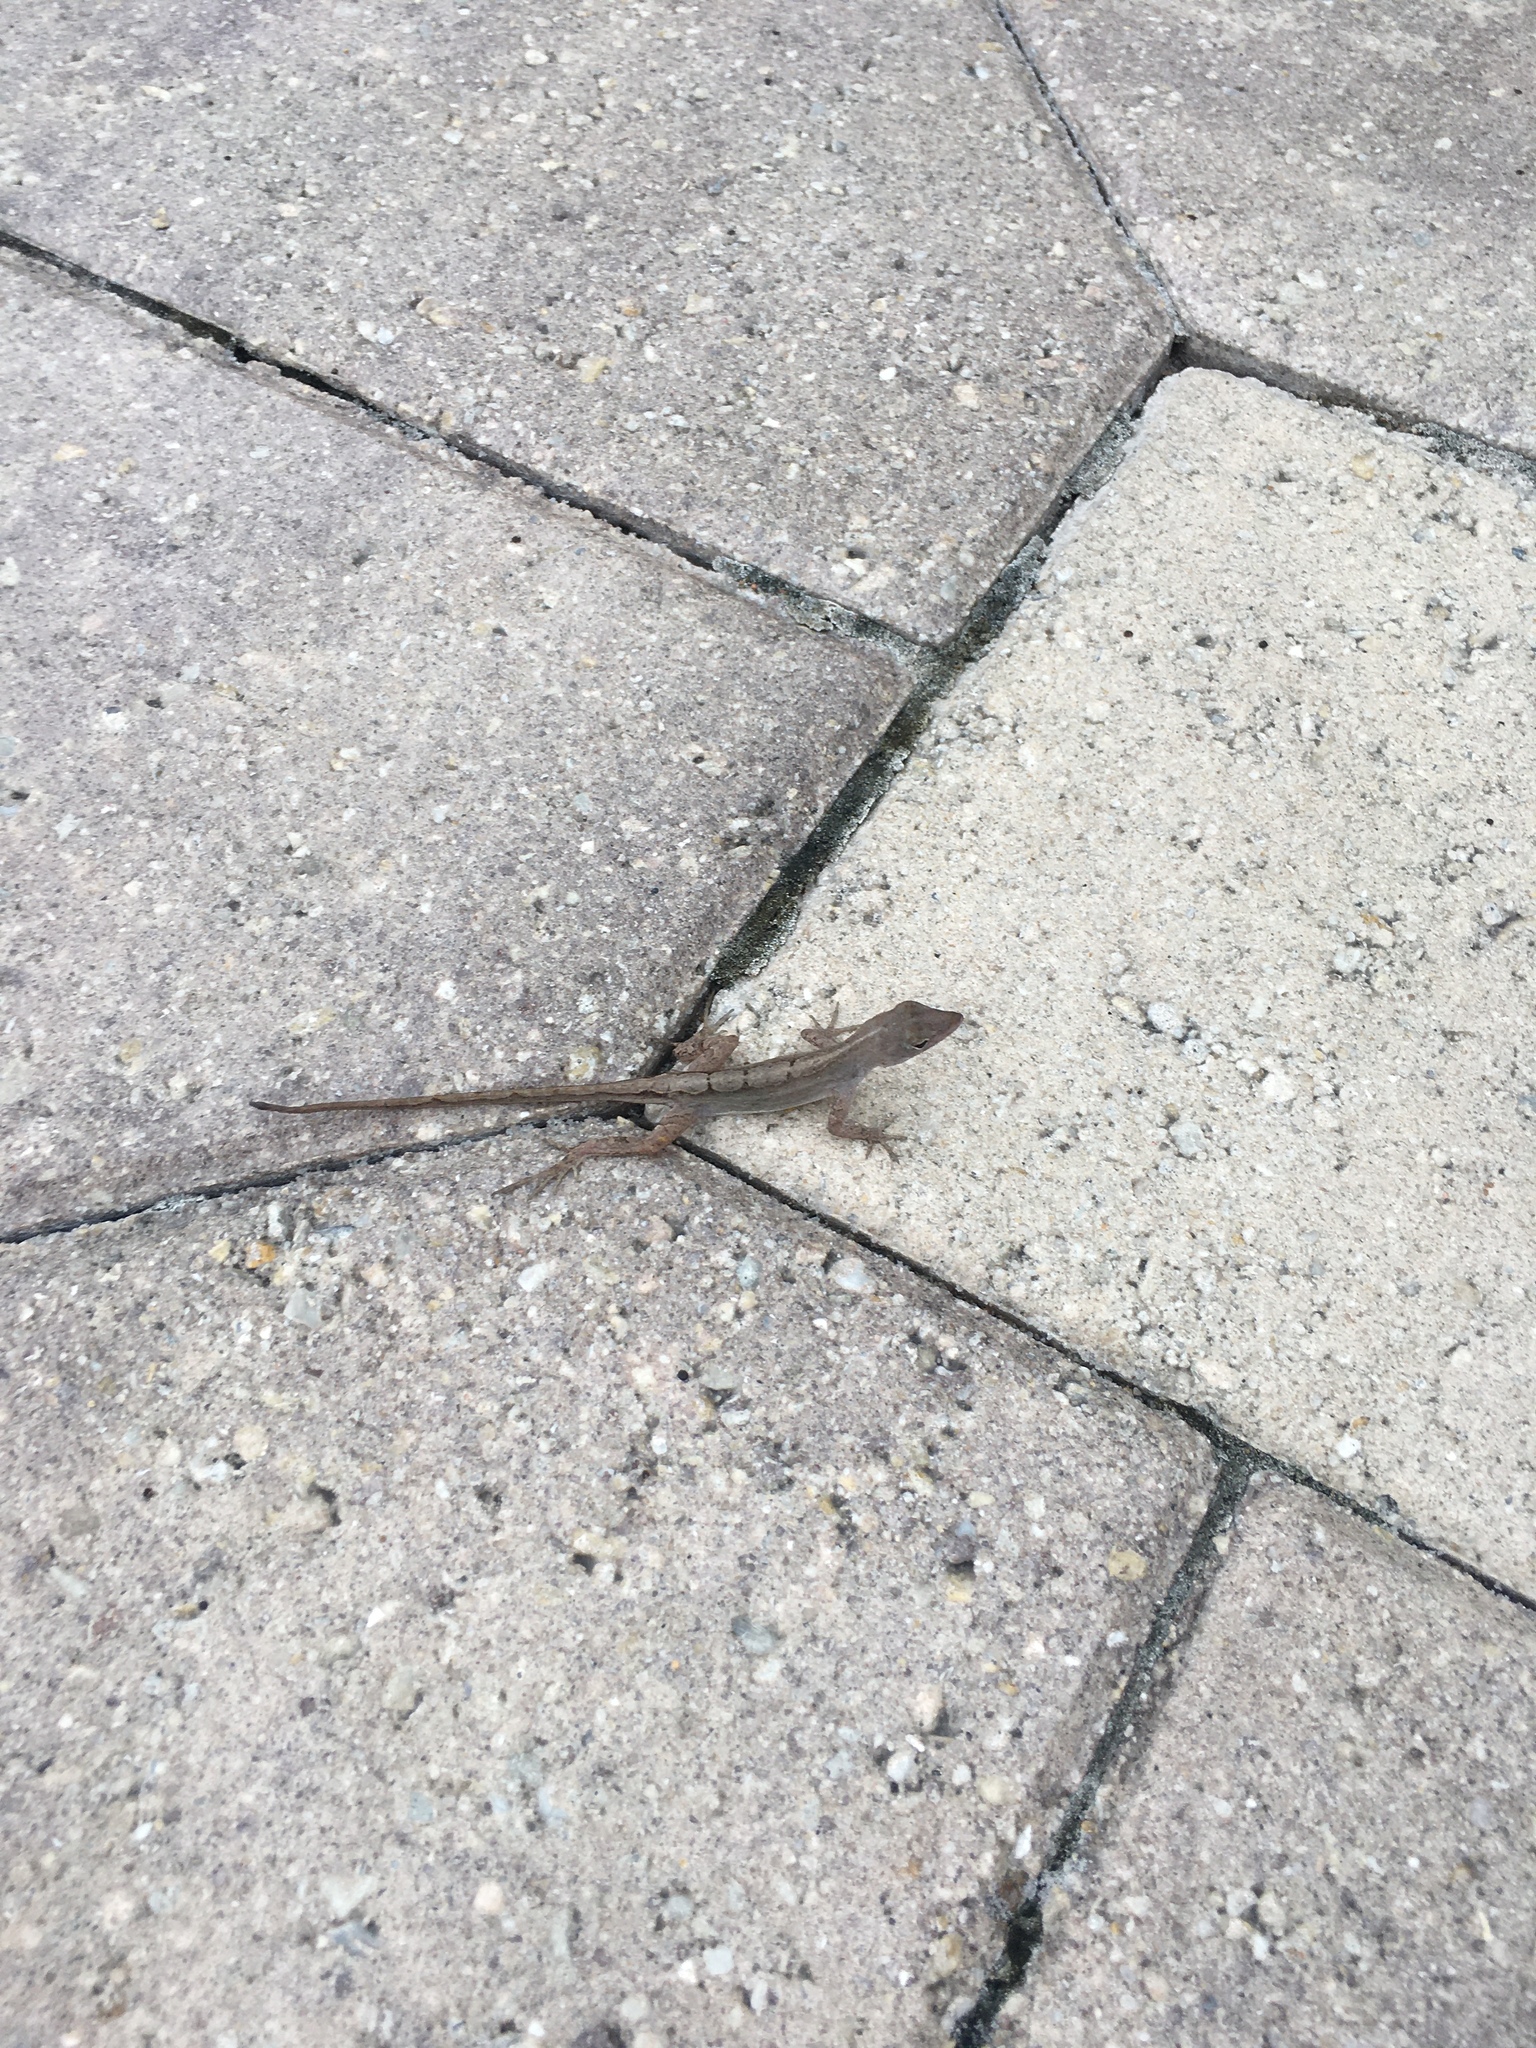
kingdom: Animalia
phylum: Chordata
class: Squamata
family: Dactyloidae
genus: Anolis
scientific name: Anolis sagrei
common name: Brown anole
